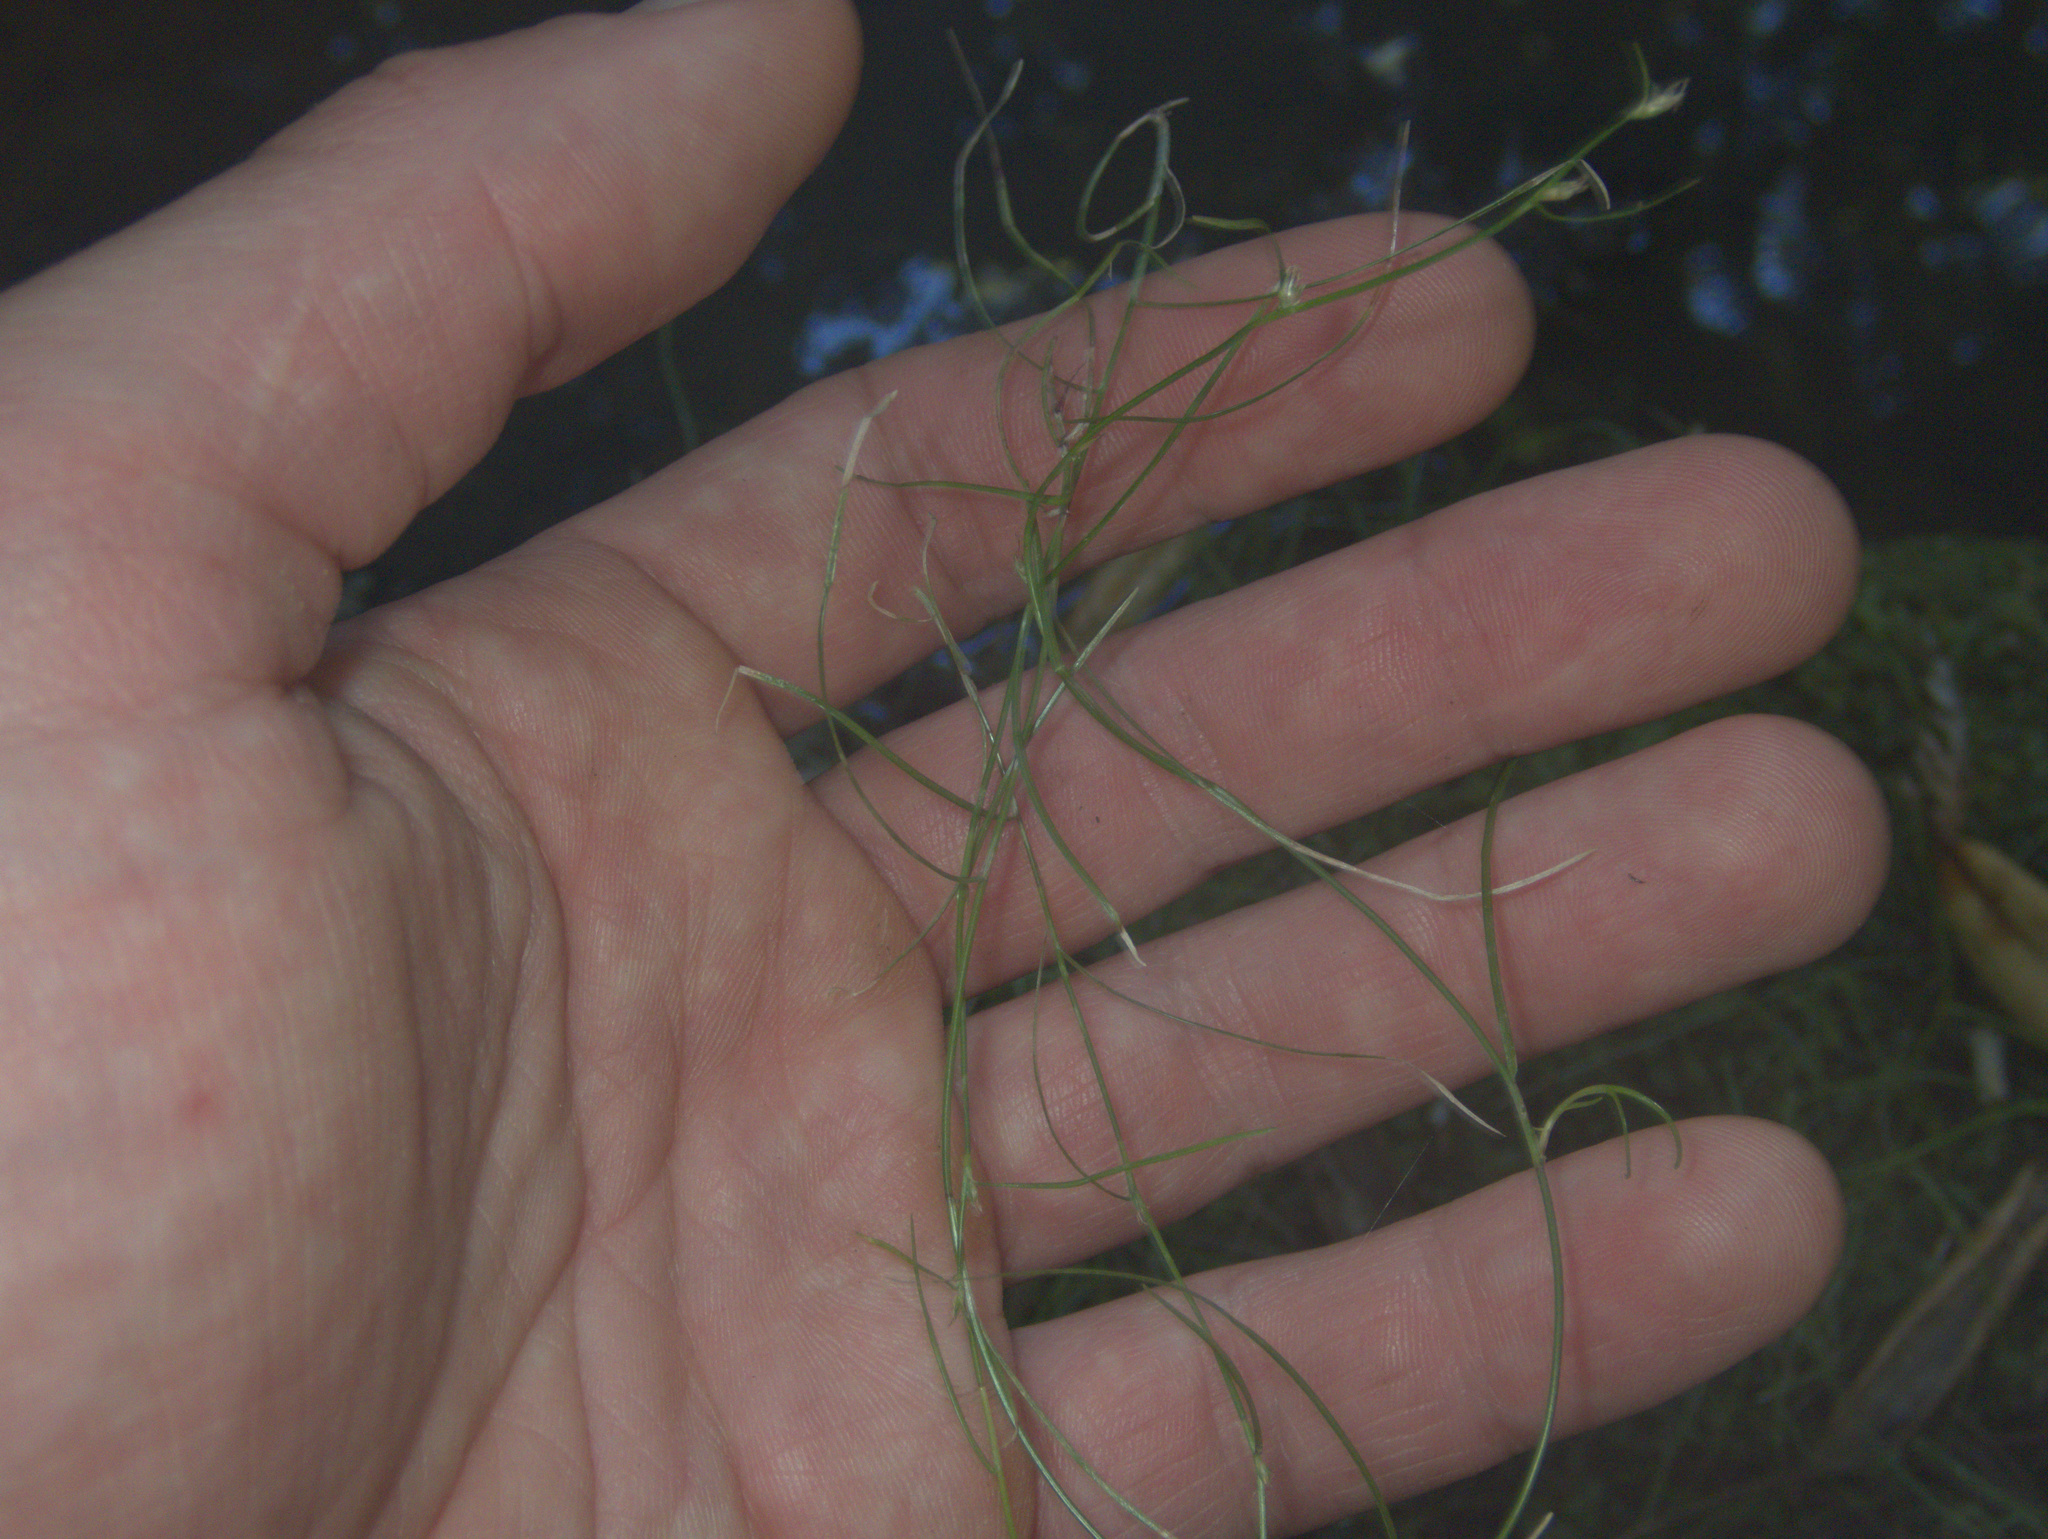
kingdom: Plantae
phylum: Tracheophyta
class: Liliopsida
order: Poales
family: Cyperaceae
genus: Schoenus
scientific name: Schoenus maschalinus
